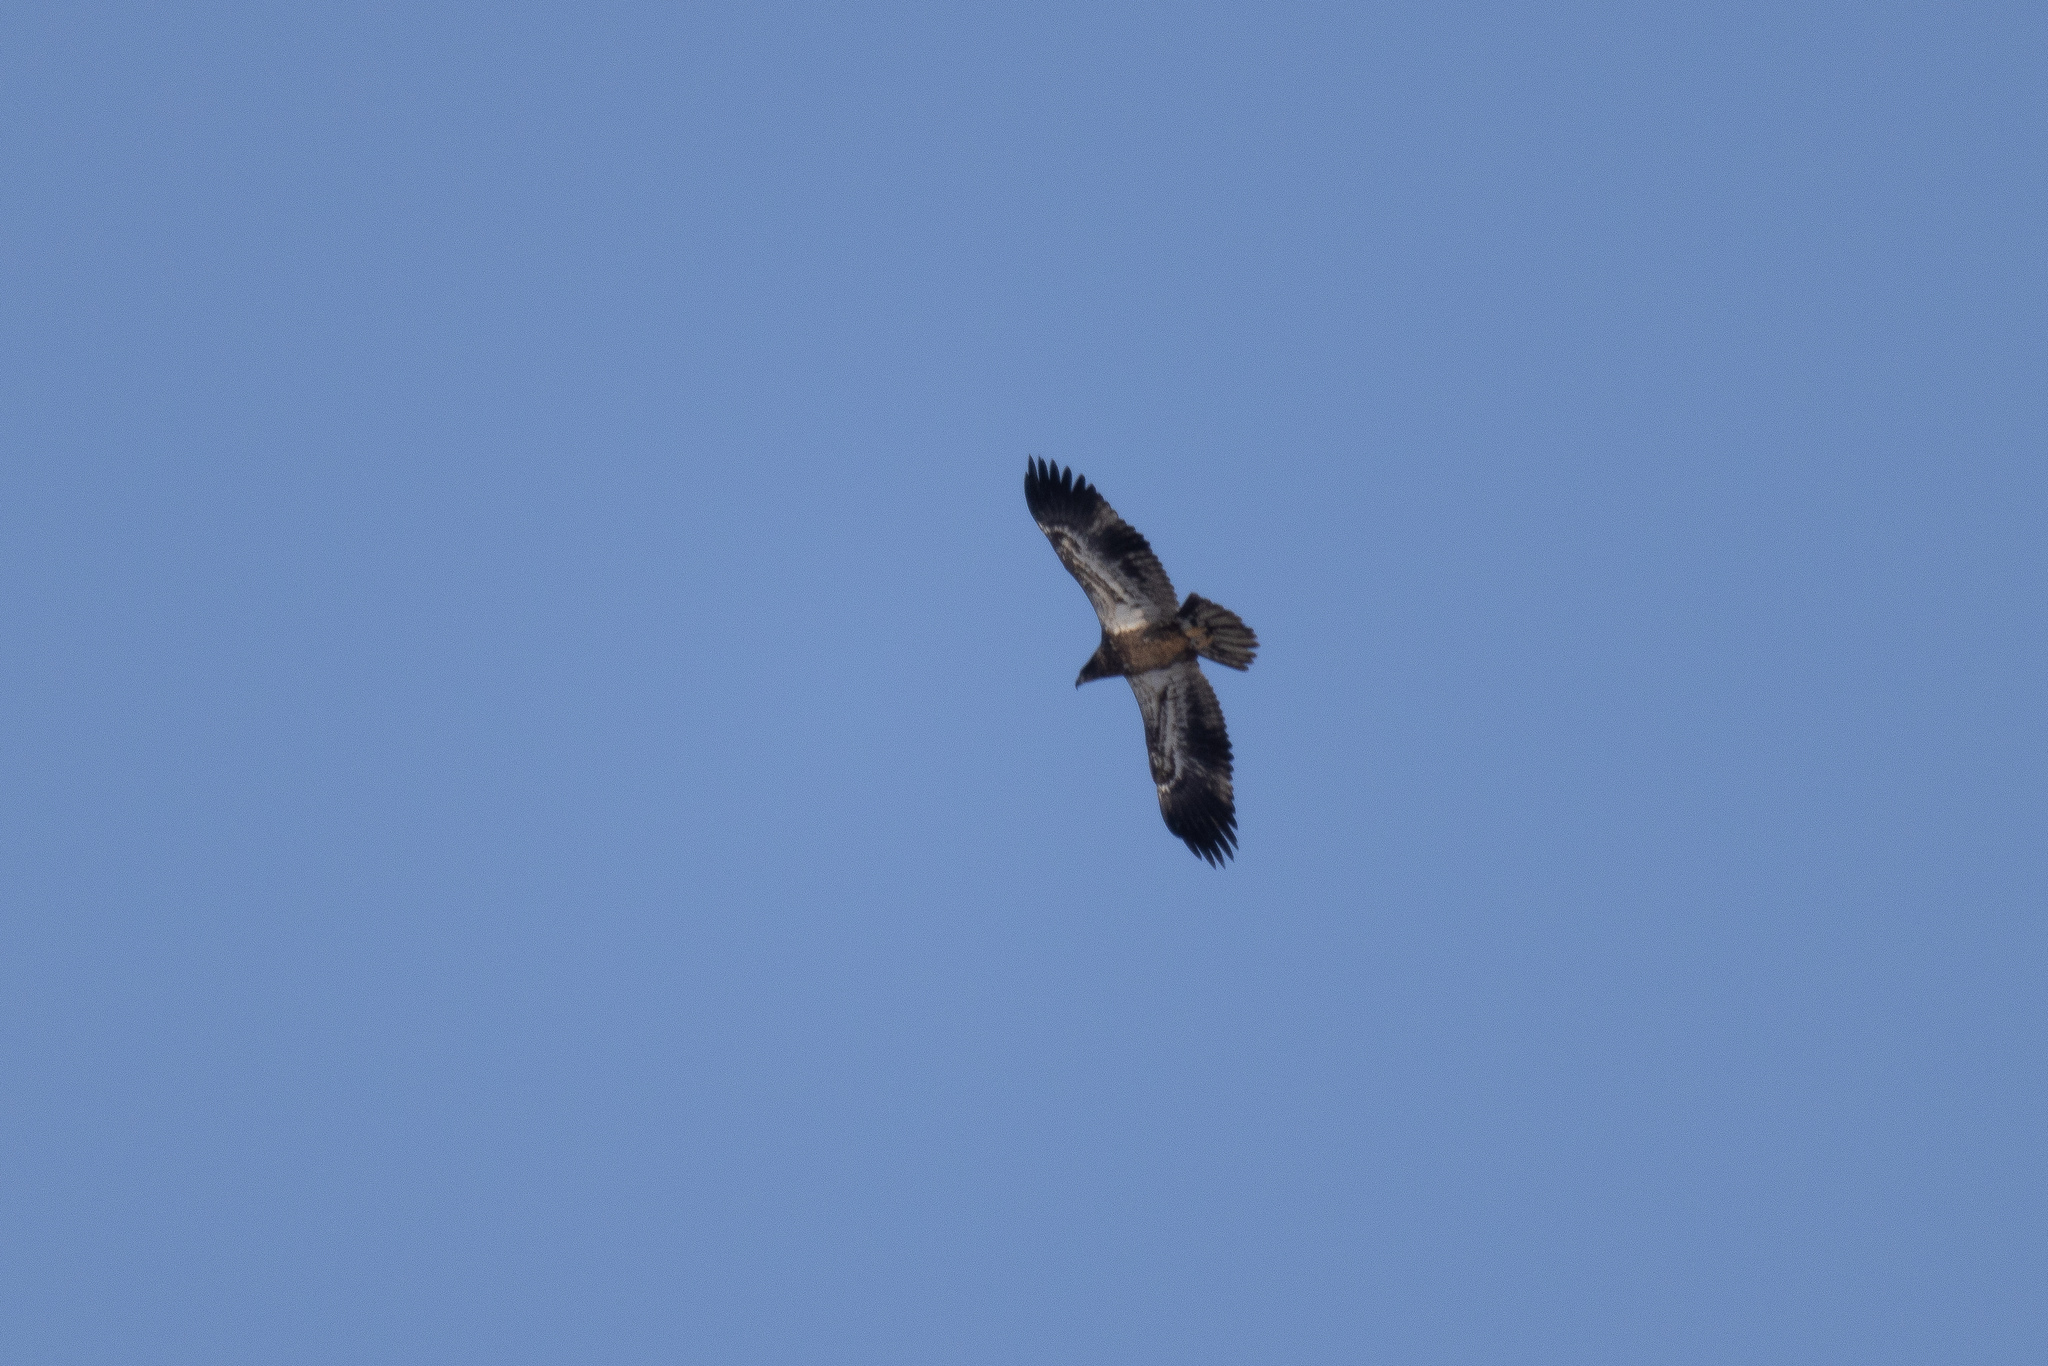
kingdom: Animalia
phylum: Chordata
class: Aves
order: Accipitriformes
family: Accipitridae
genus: Haliaeetus
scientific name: Haliaeetus leucocephalus
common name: Bald eagle
